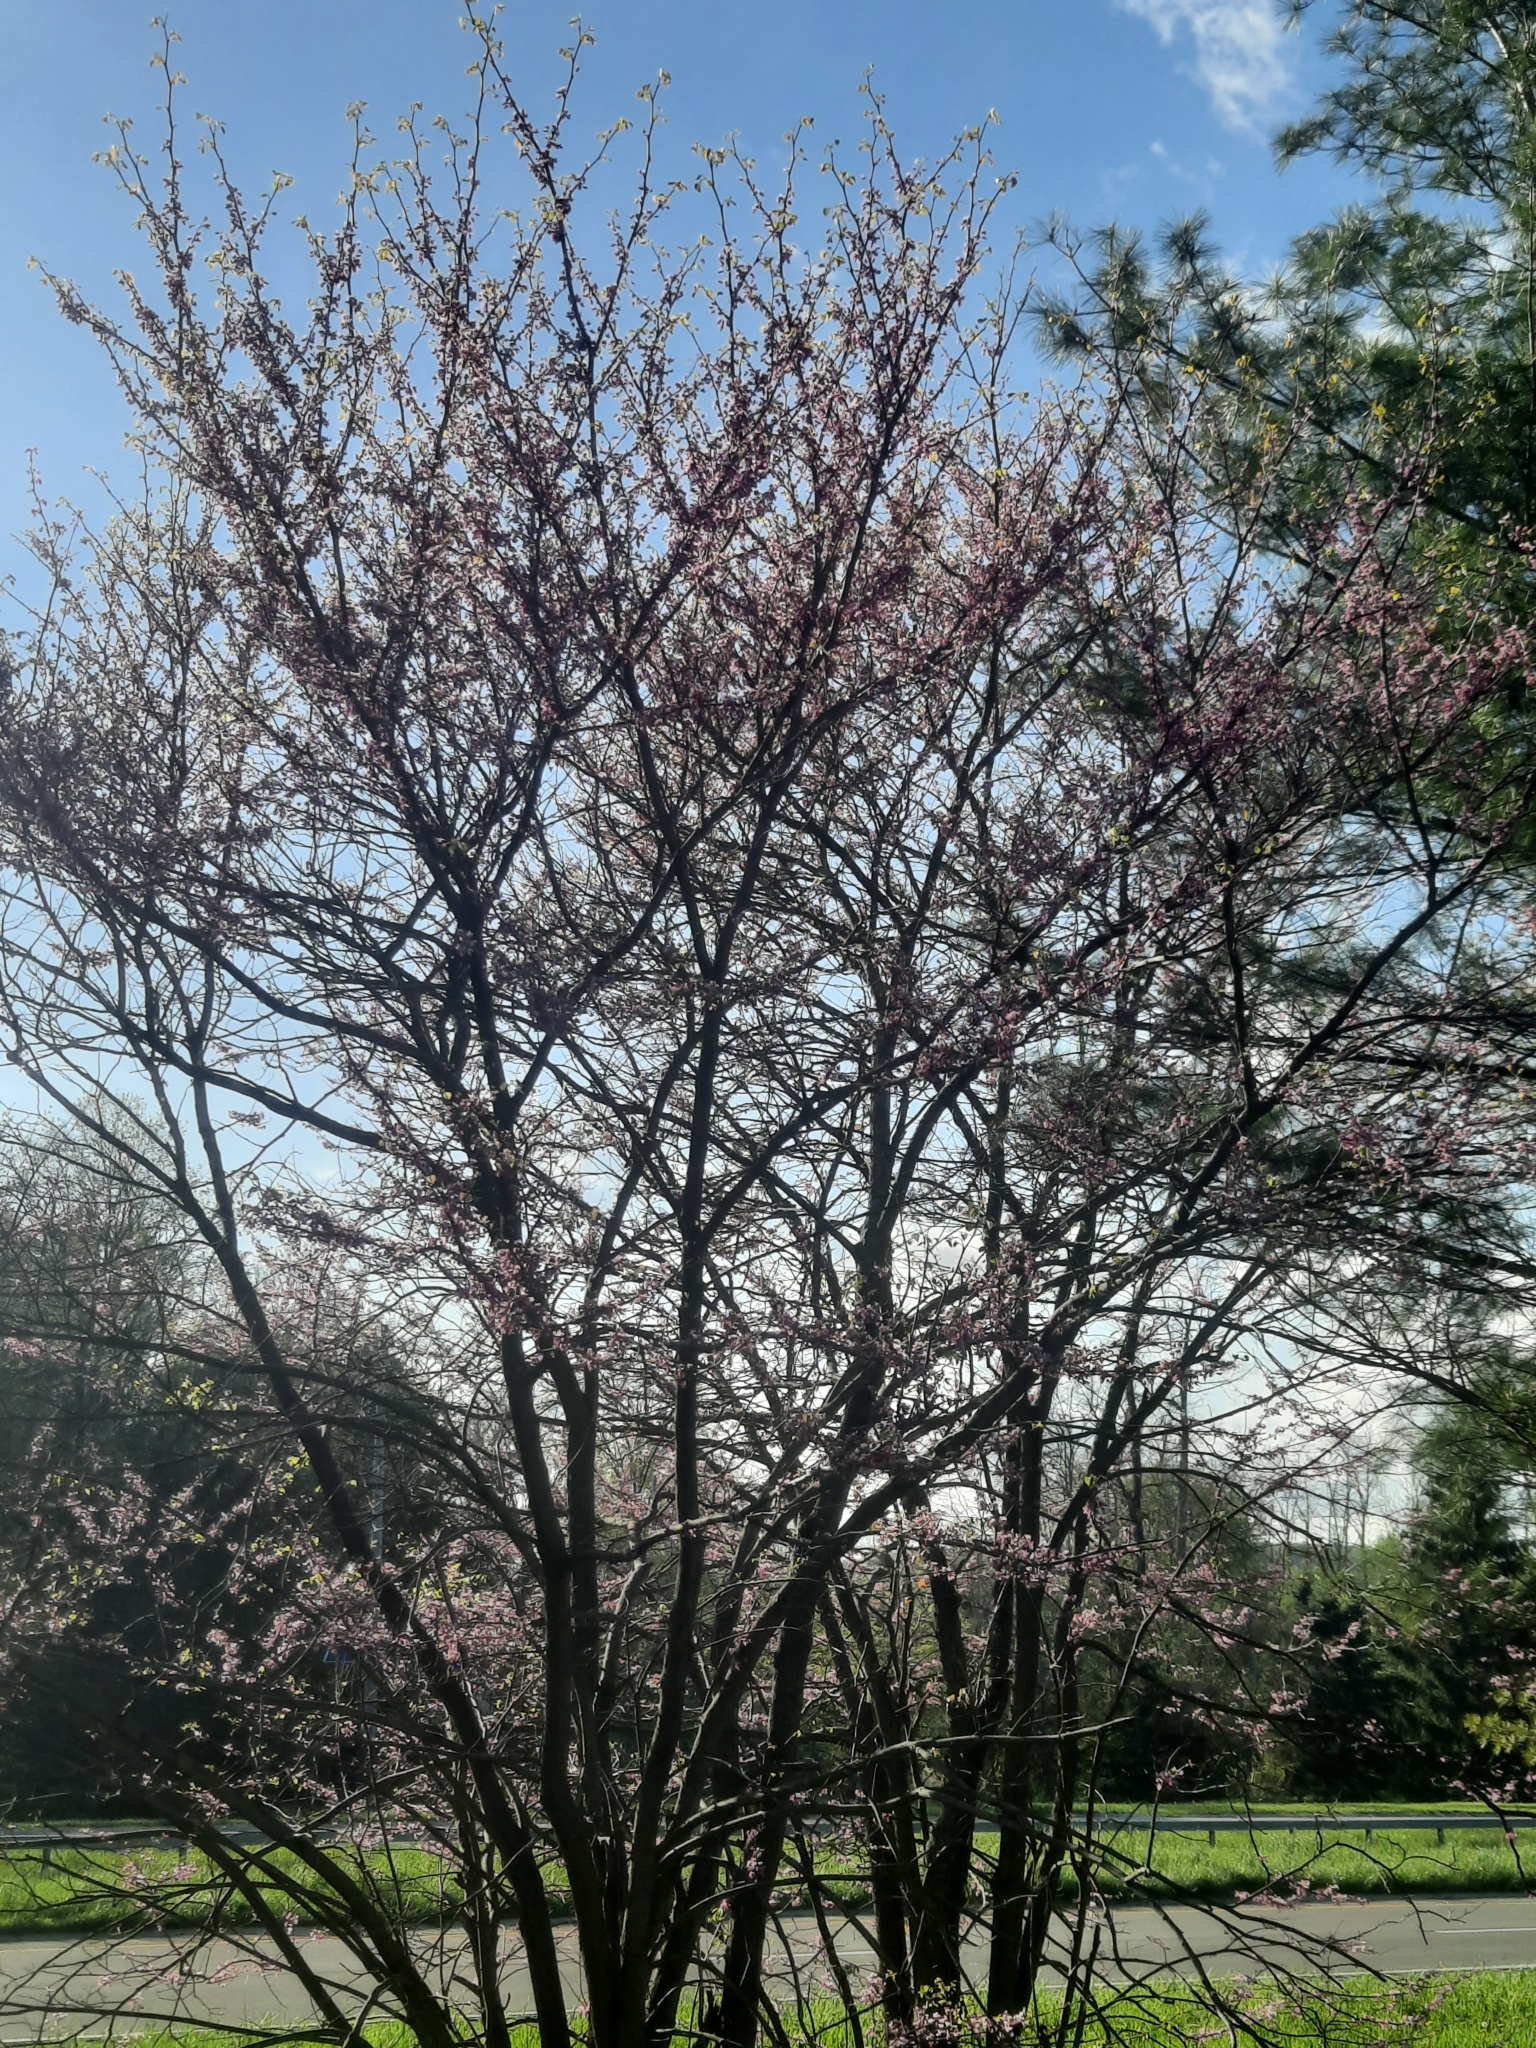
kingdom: Plantae
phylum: Tracheophyta
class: Magnoliopsida
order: Fabales
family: Fabaceae
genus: Cercis
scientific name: Cercis canadensis
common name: Eastern redbud
